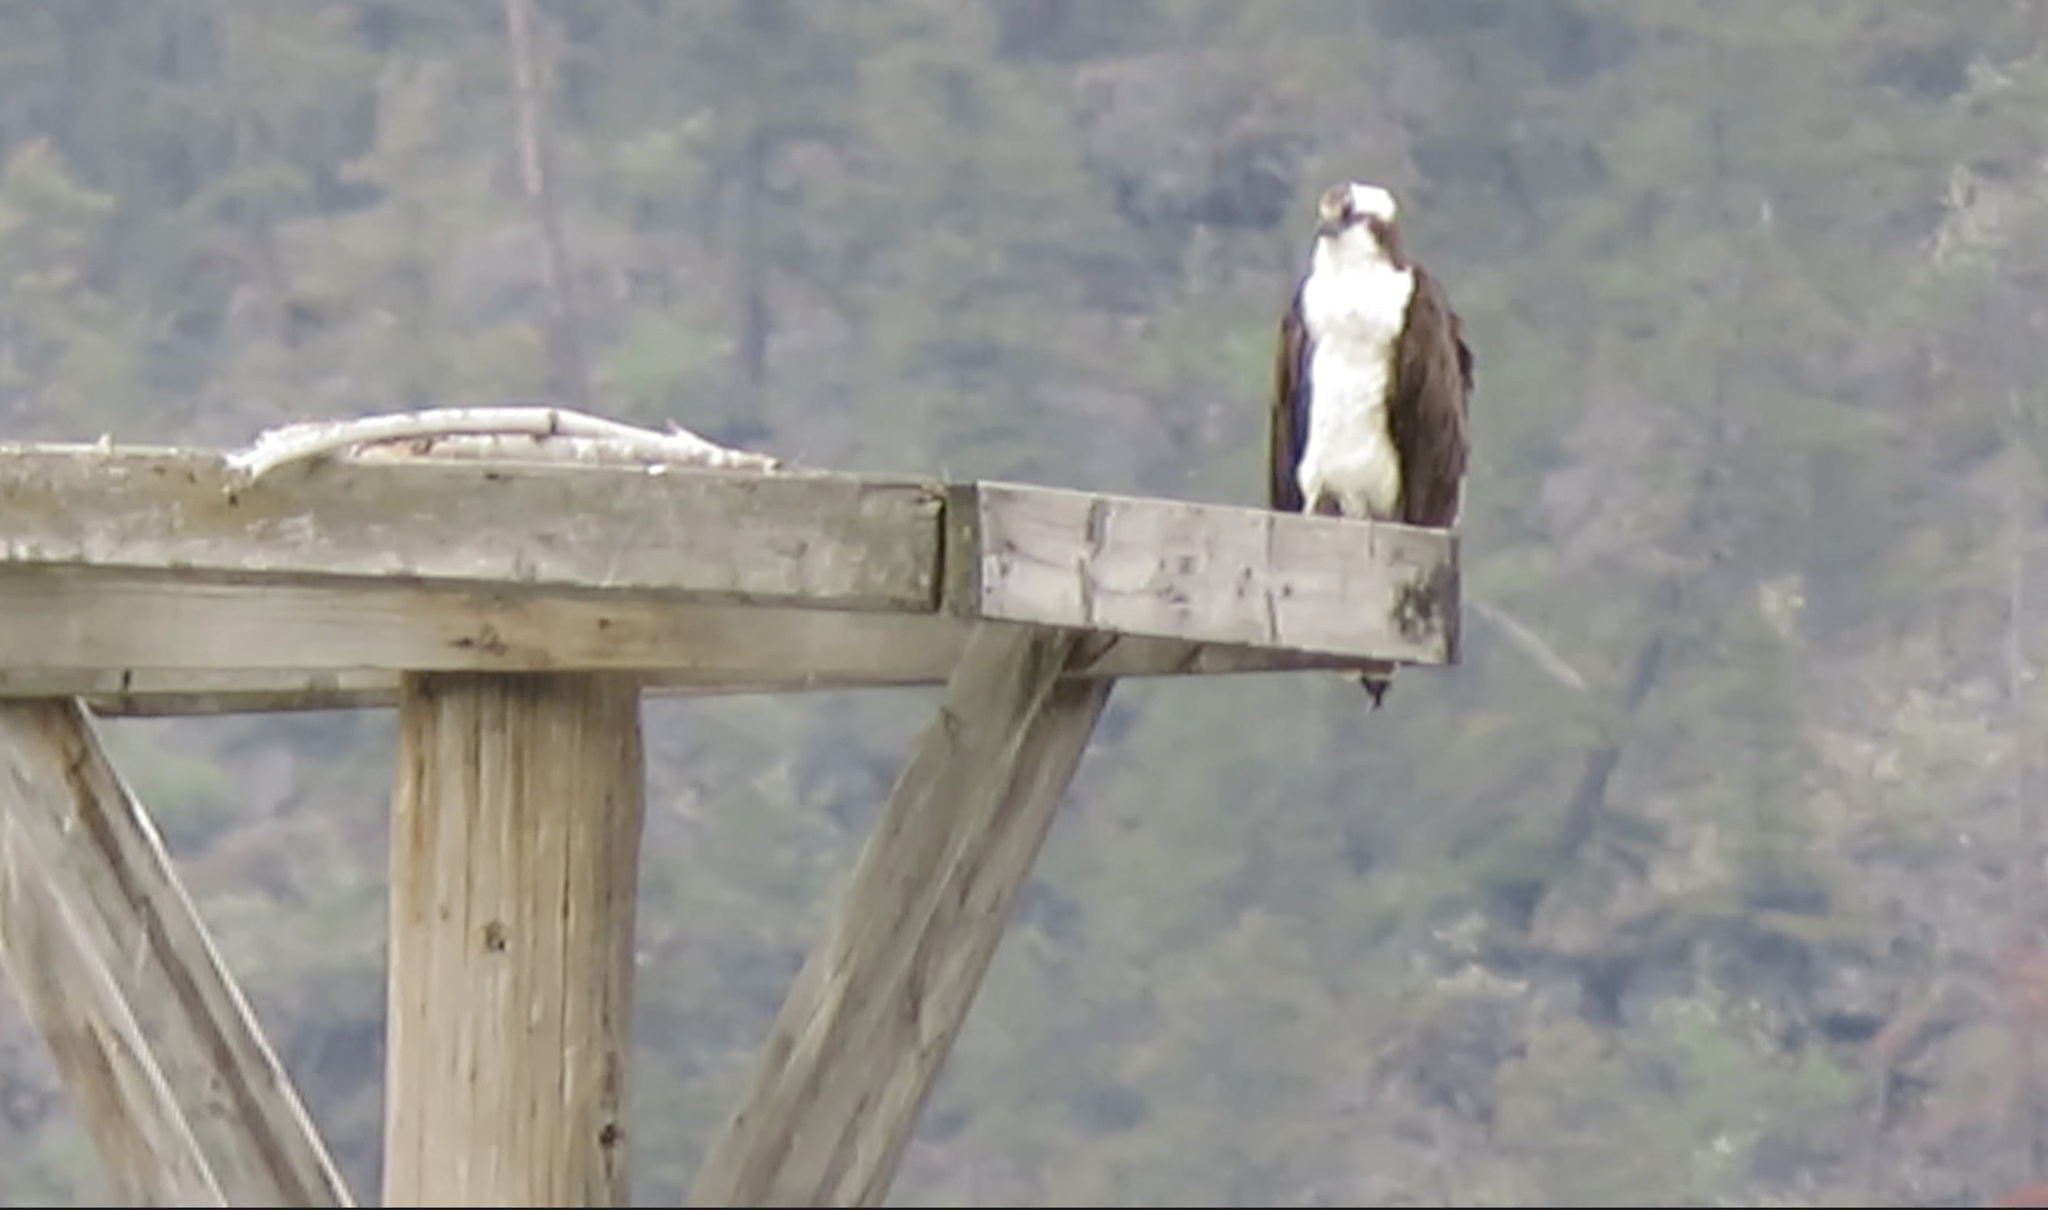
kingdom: Animalia
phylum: Chordata
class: Aves
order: Accipitriformes
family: Pandionidae
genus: Pandion
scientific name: Pandion haliaetus
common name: Osprey
